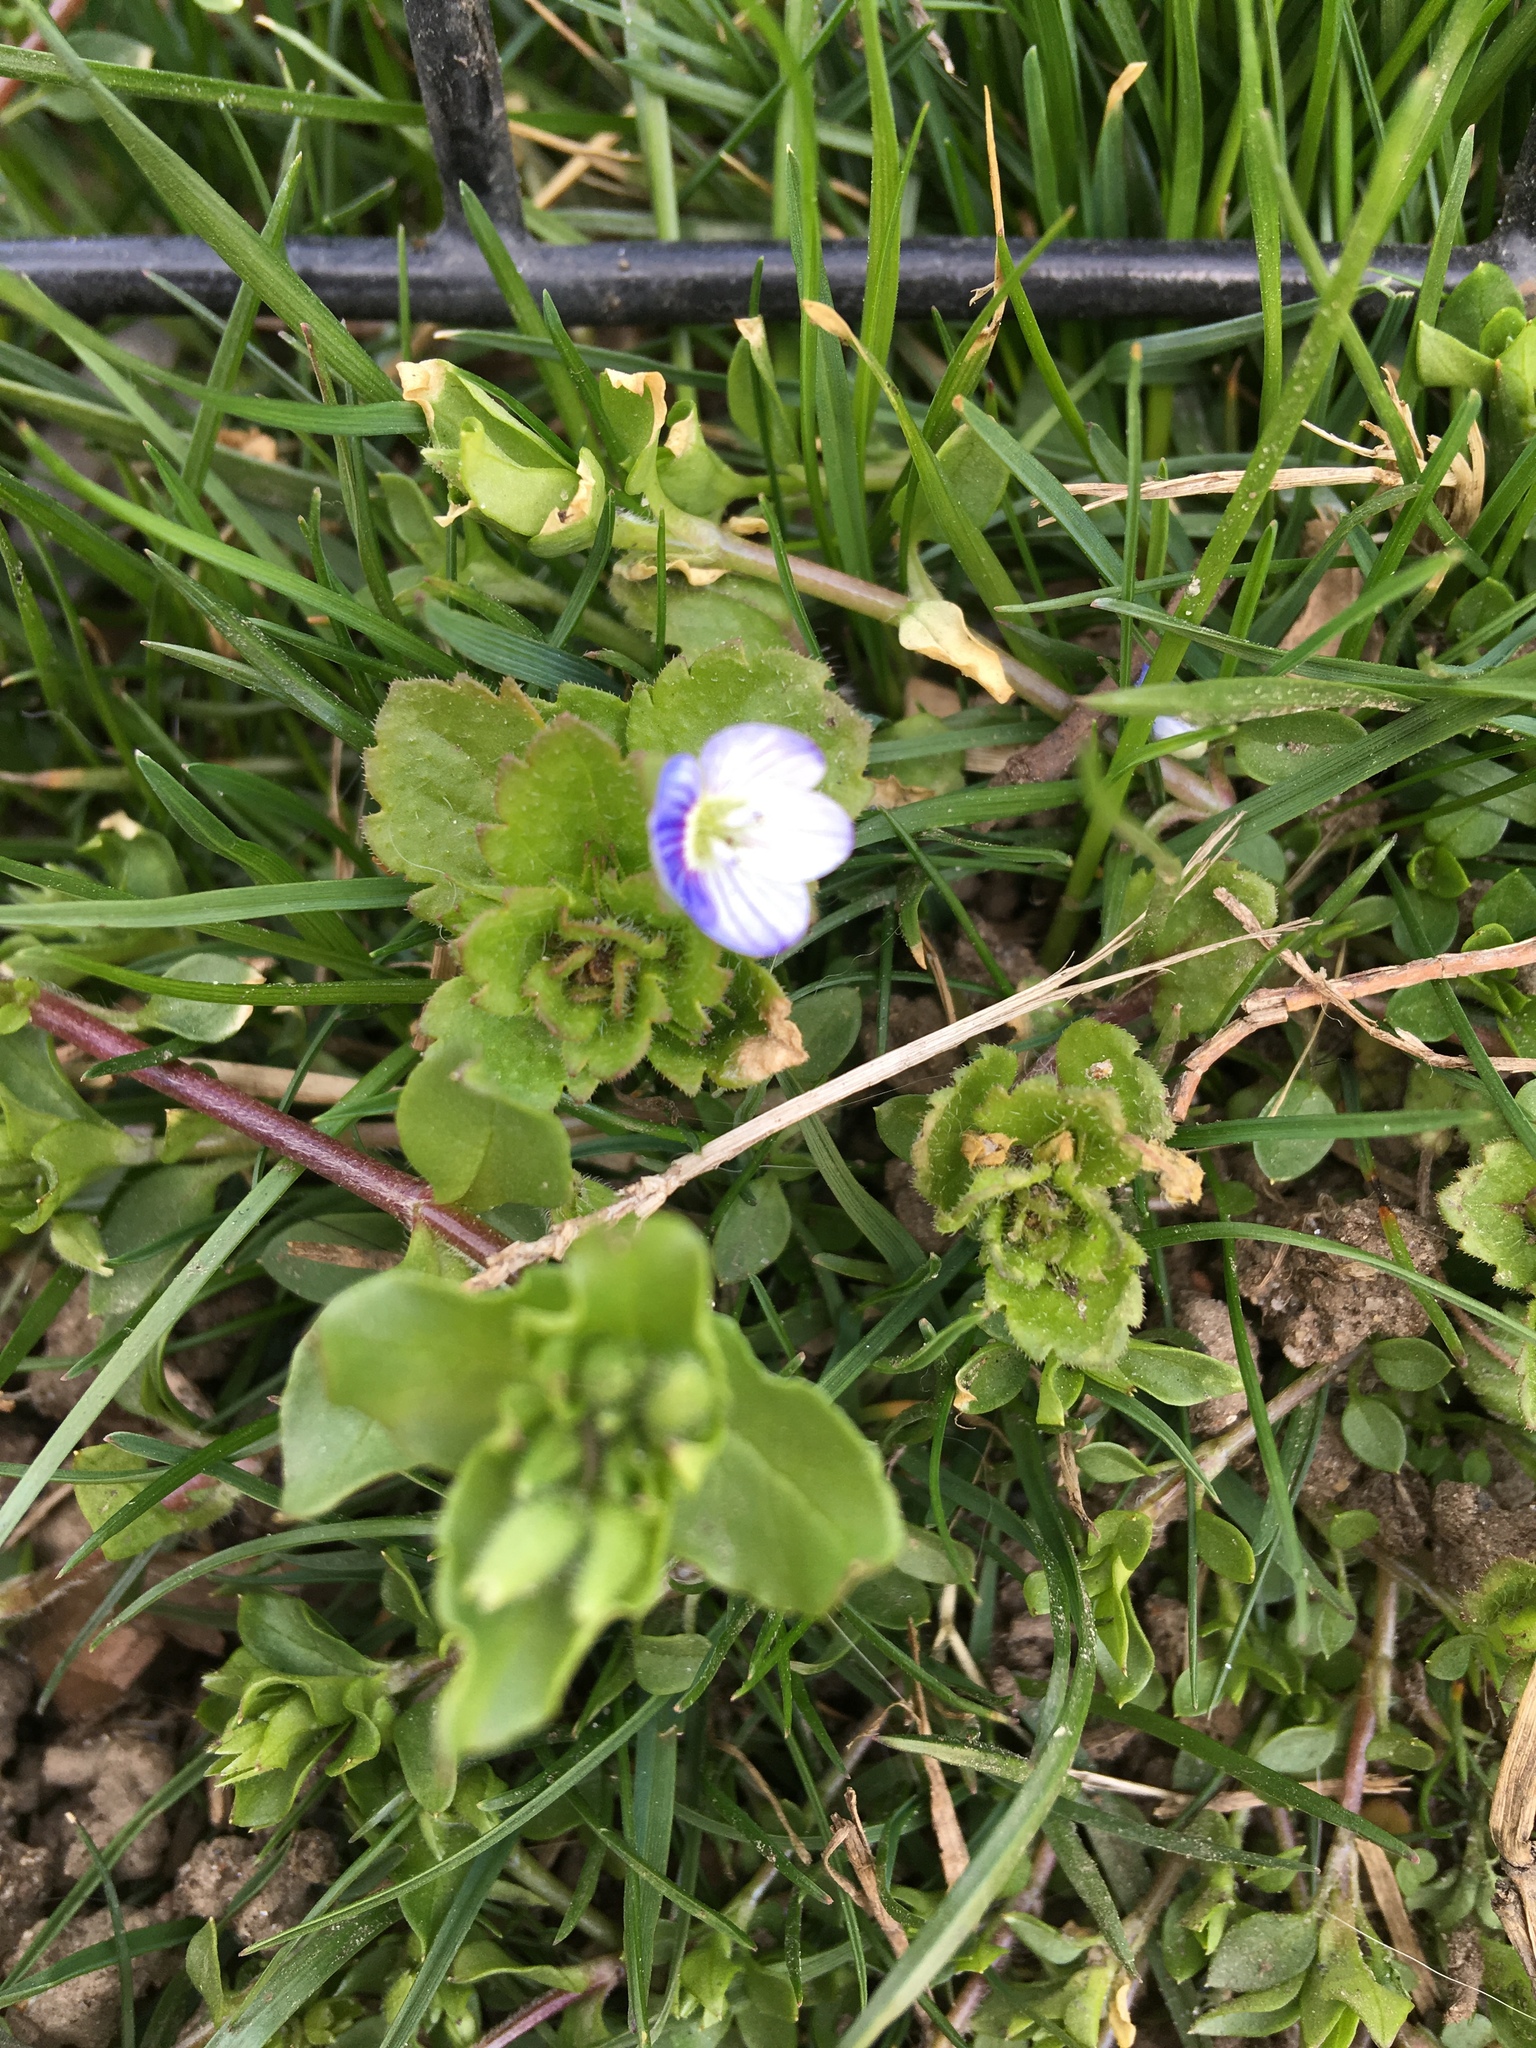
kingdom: Plantae
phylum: Tracheophyta
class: Magnoliopsida
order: Lamiales
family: Plantaginaceae
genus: Veronica
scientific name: Veronica persica
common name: Common field-speedwell
